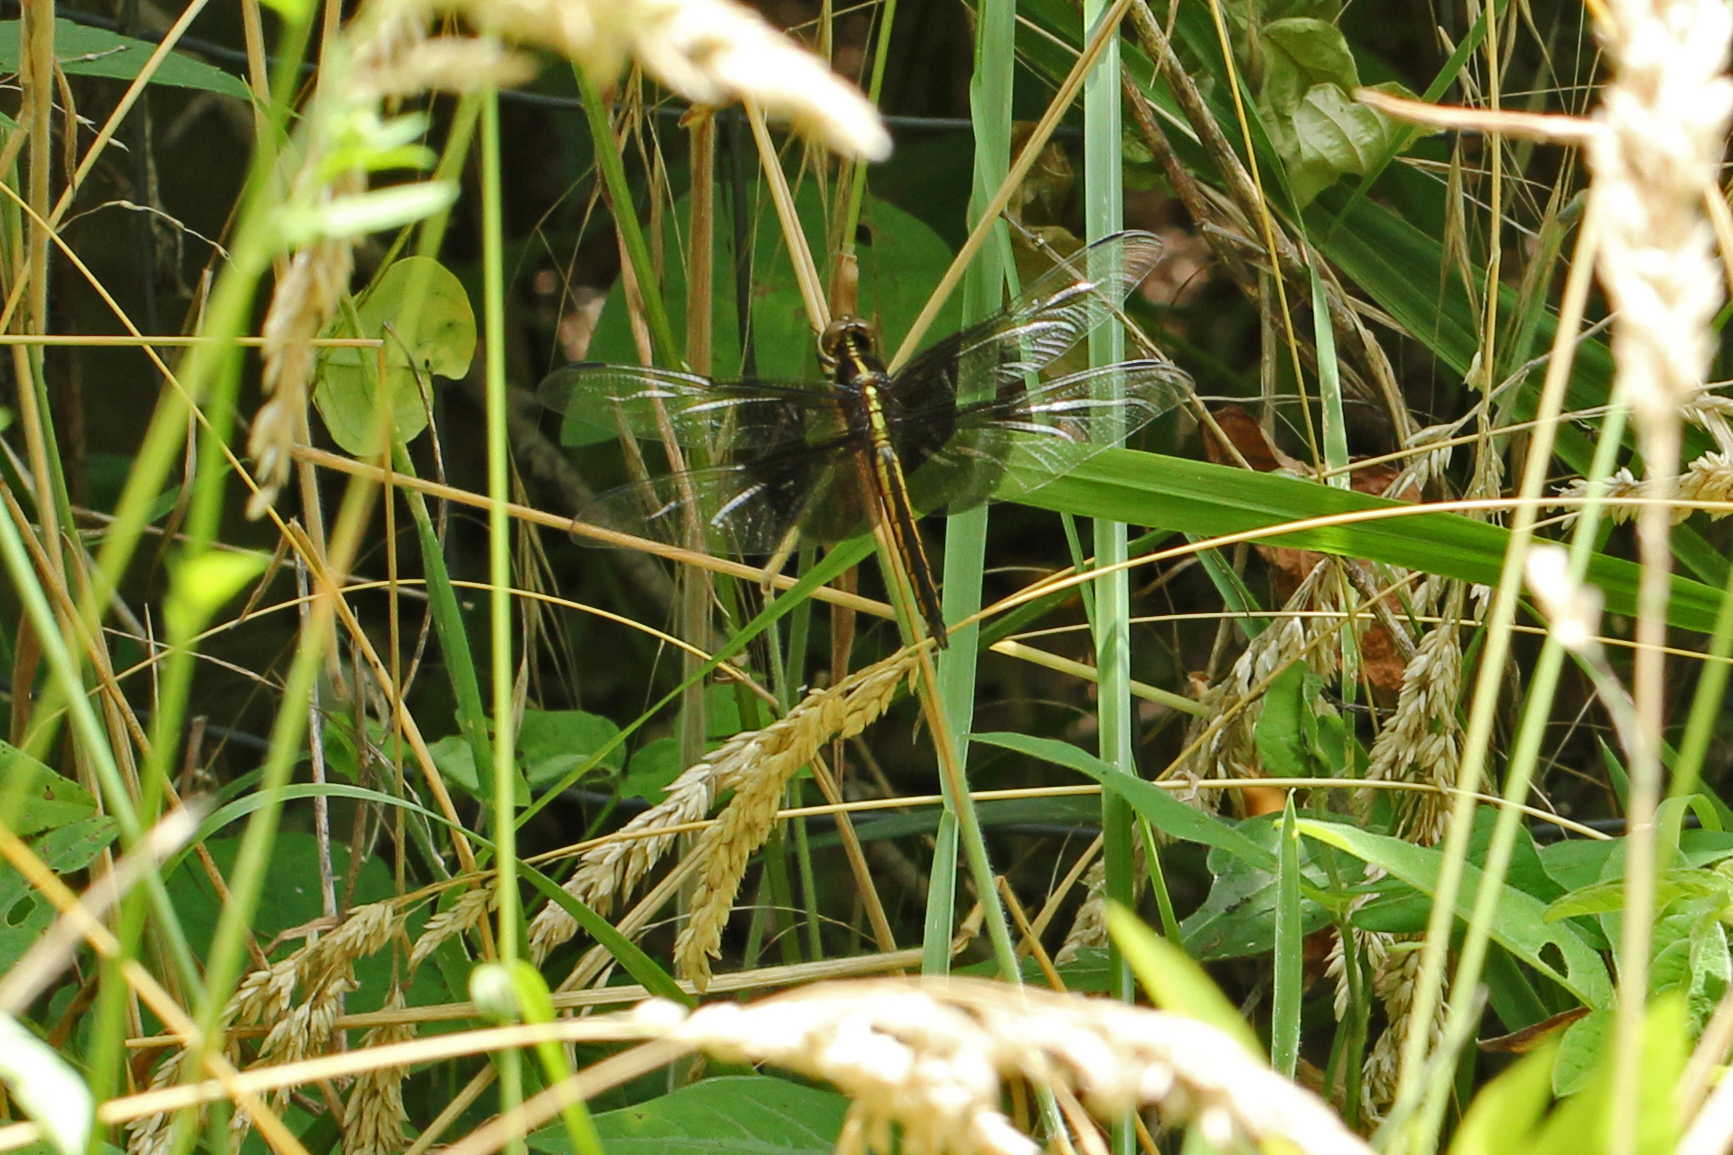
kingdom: Animalia
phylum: Arthropoda
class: Insecta
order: Odonata
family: Libellulidae
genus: Libellula
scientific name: Libellula luctuosa
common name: Widow skimmer
